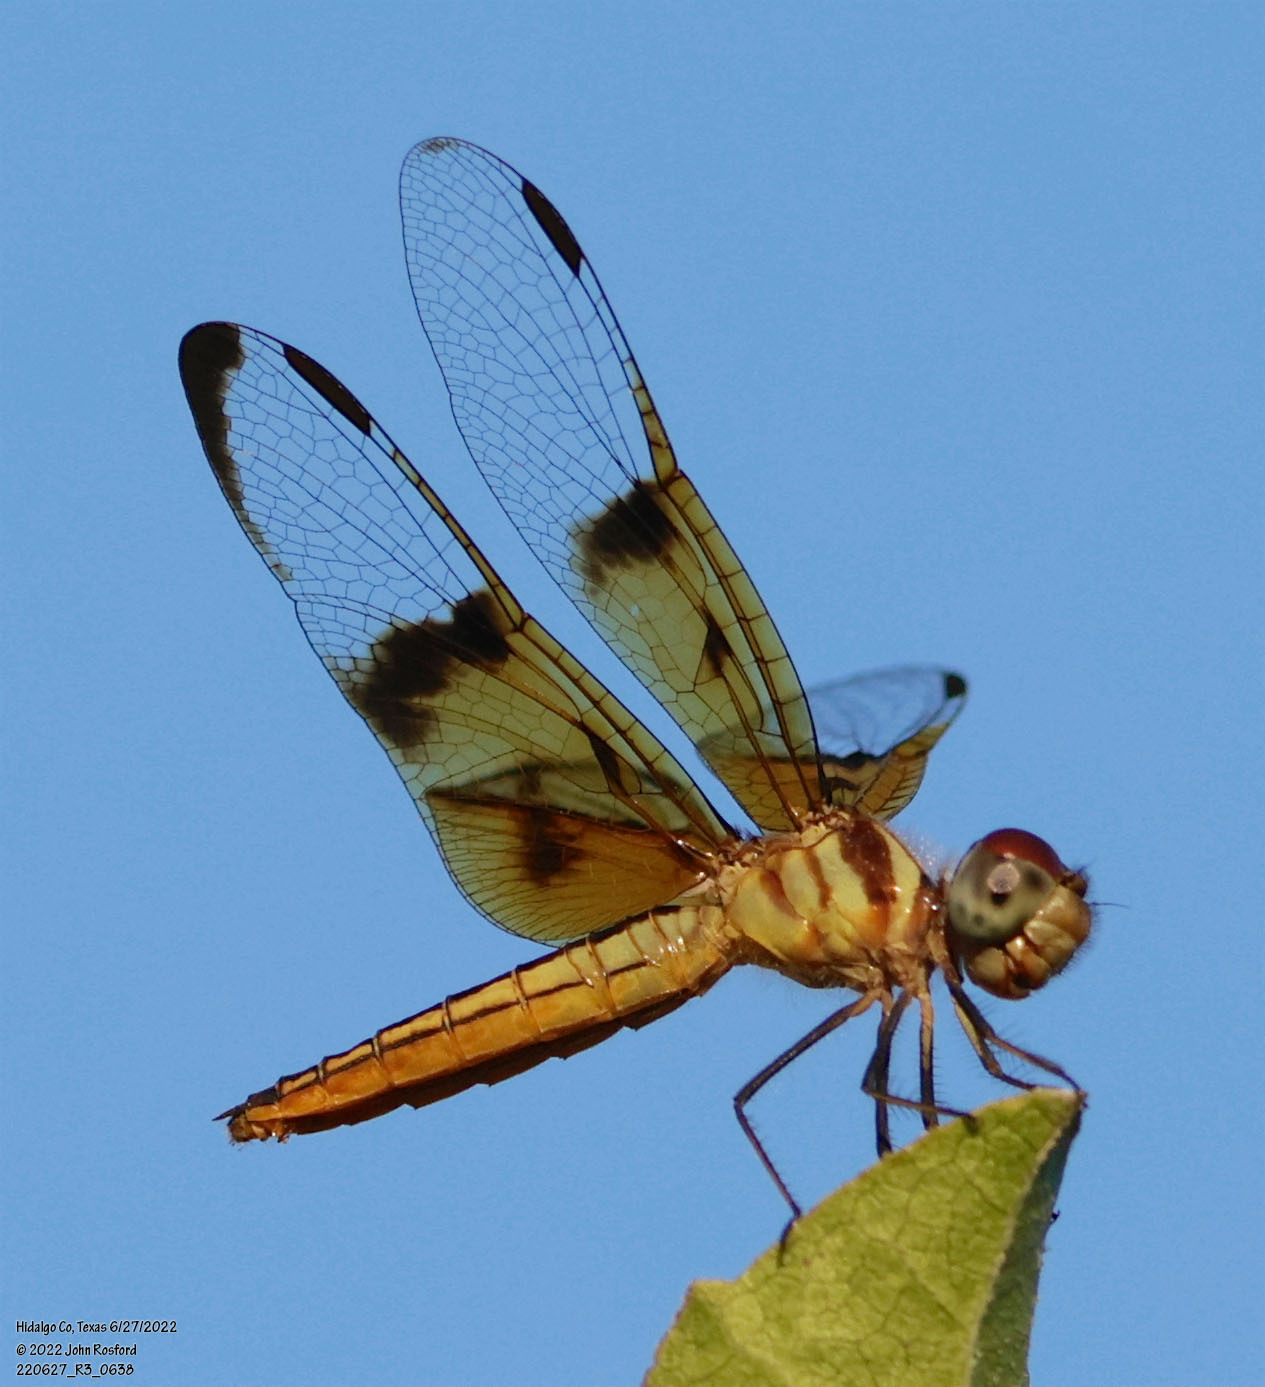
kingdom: Animalia
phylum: Arthropoda
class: Insecta
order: Odonata
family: Libellulidae
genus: Perithemis
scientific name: Perithemis domitia
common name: Slough amberwing
